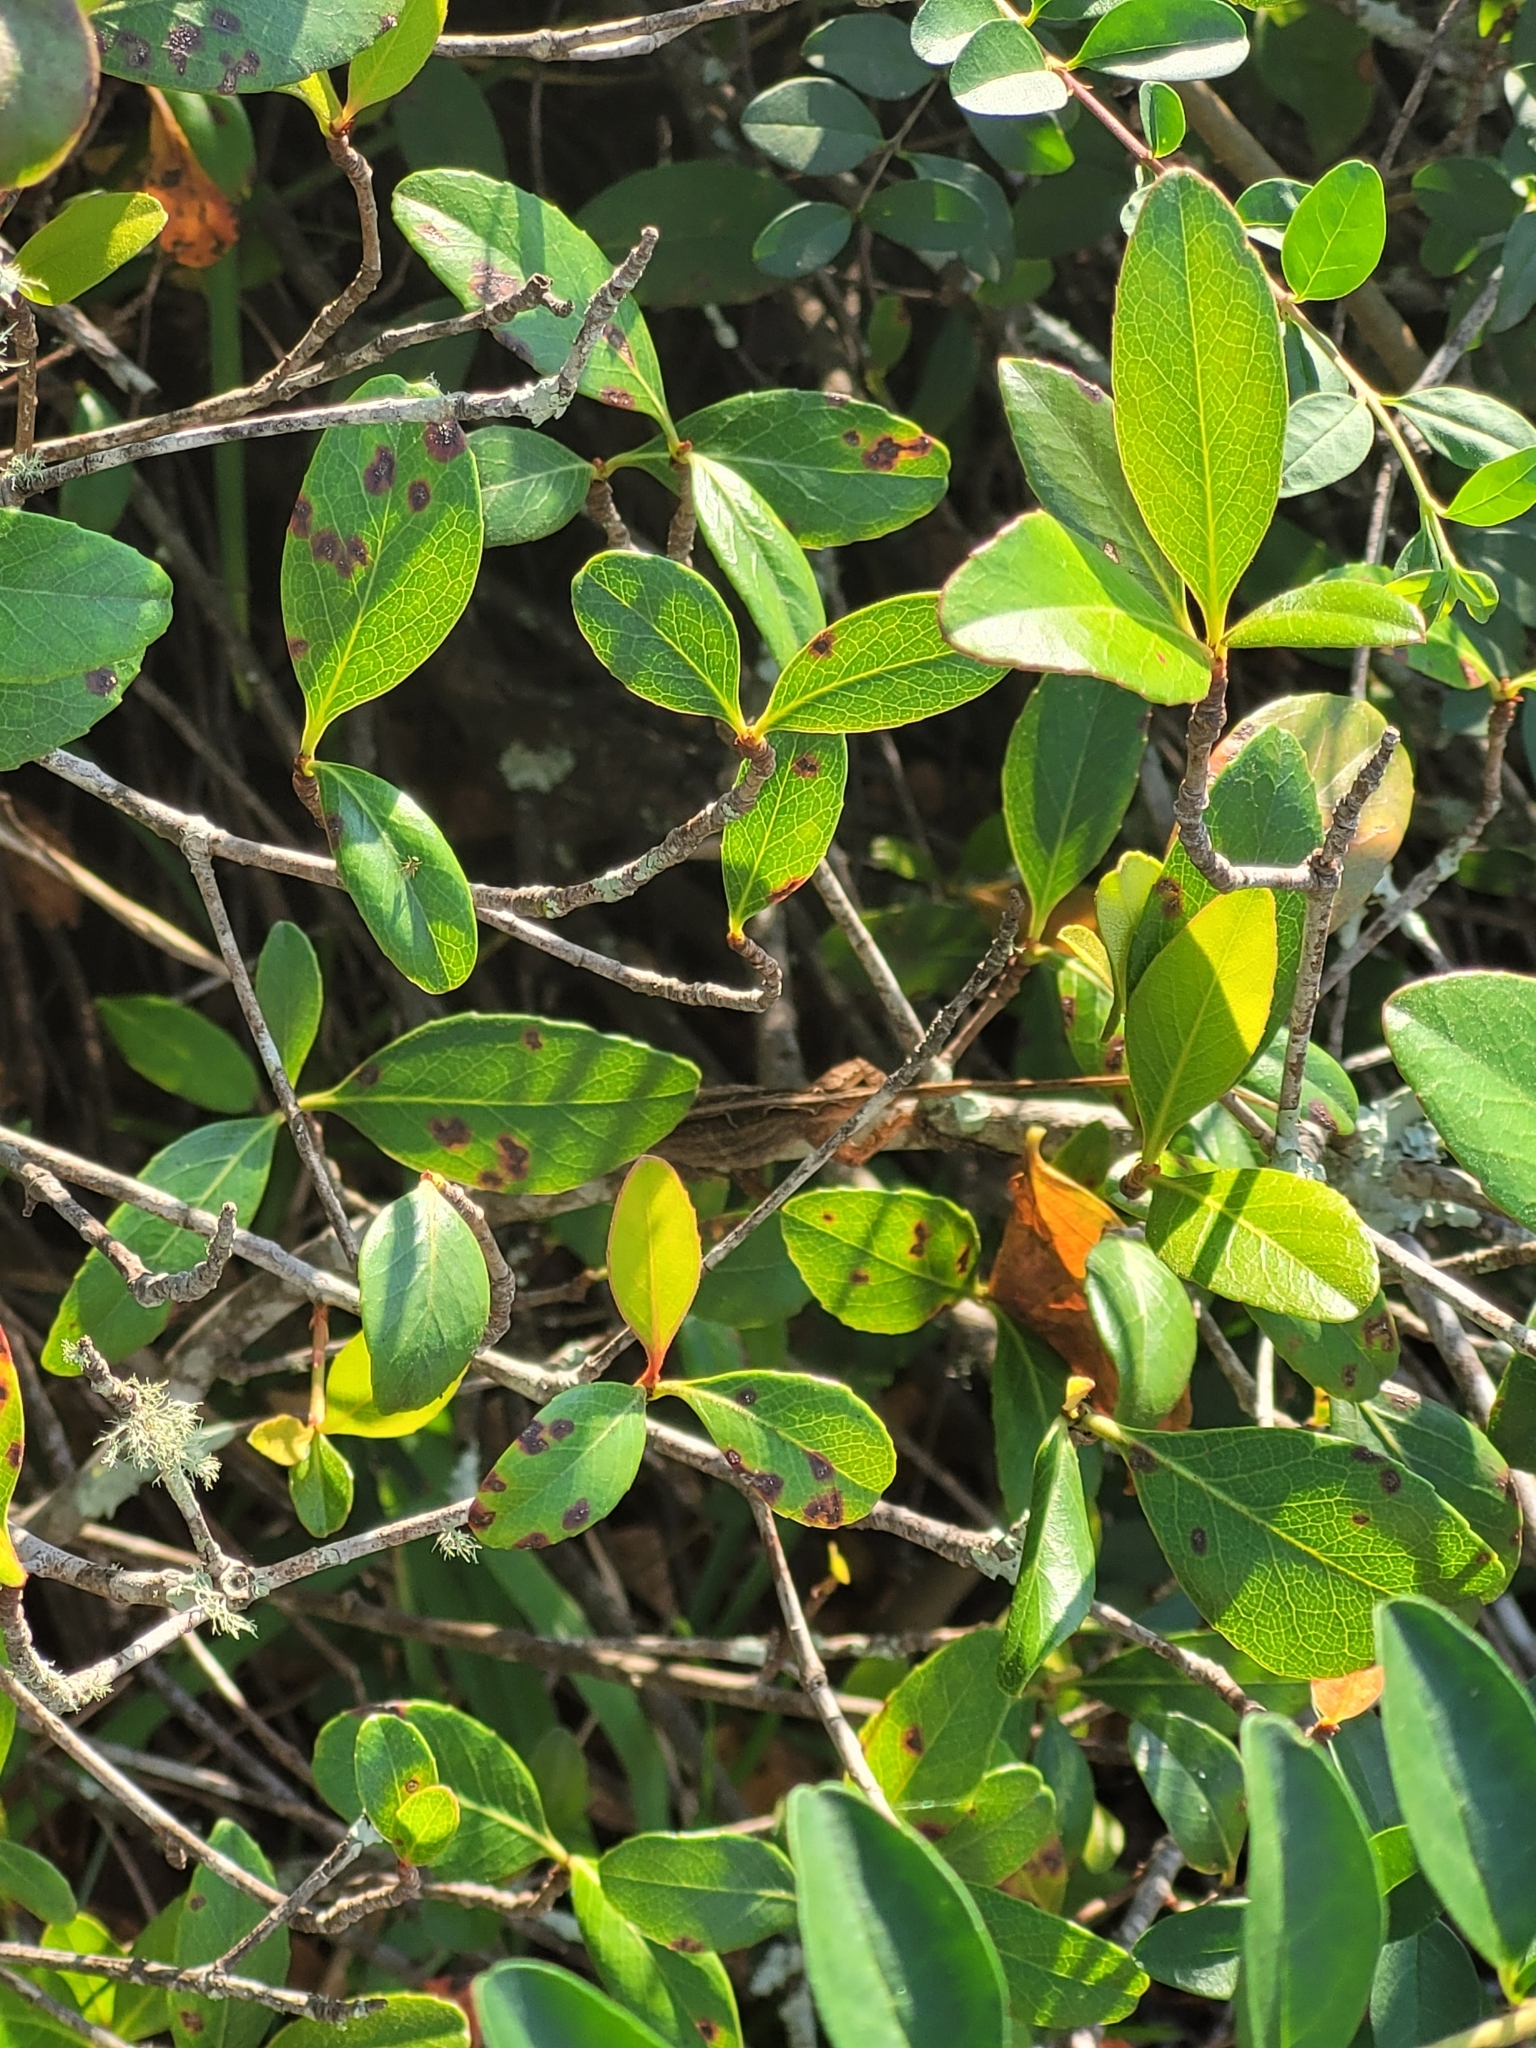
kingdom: Animalia
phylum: Chordata
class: Squamata
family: Dactyloidae
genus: Anolis
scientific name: Anolis sagrei
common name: Brown anole
